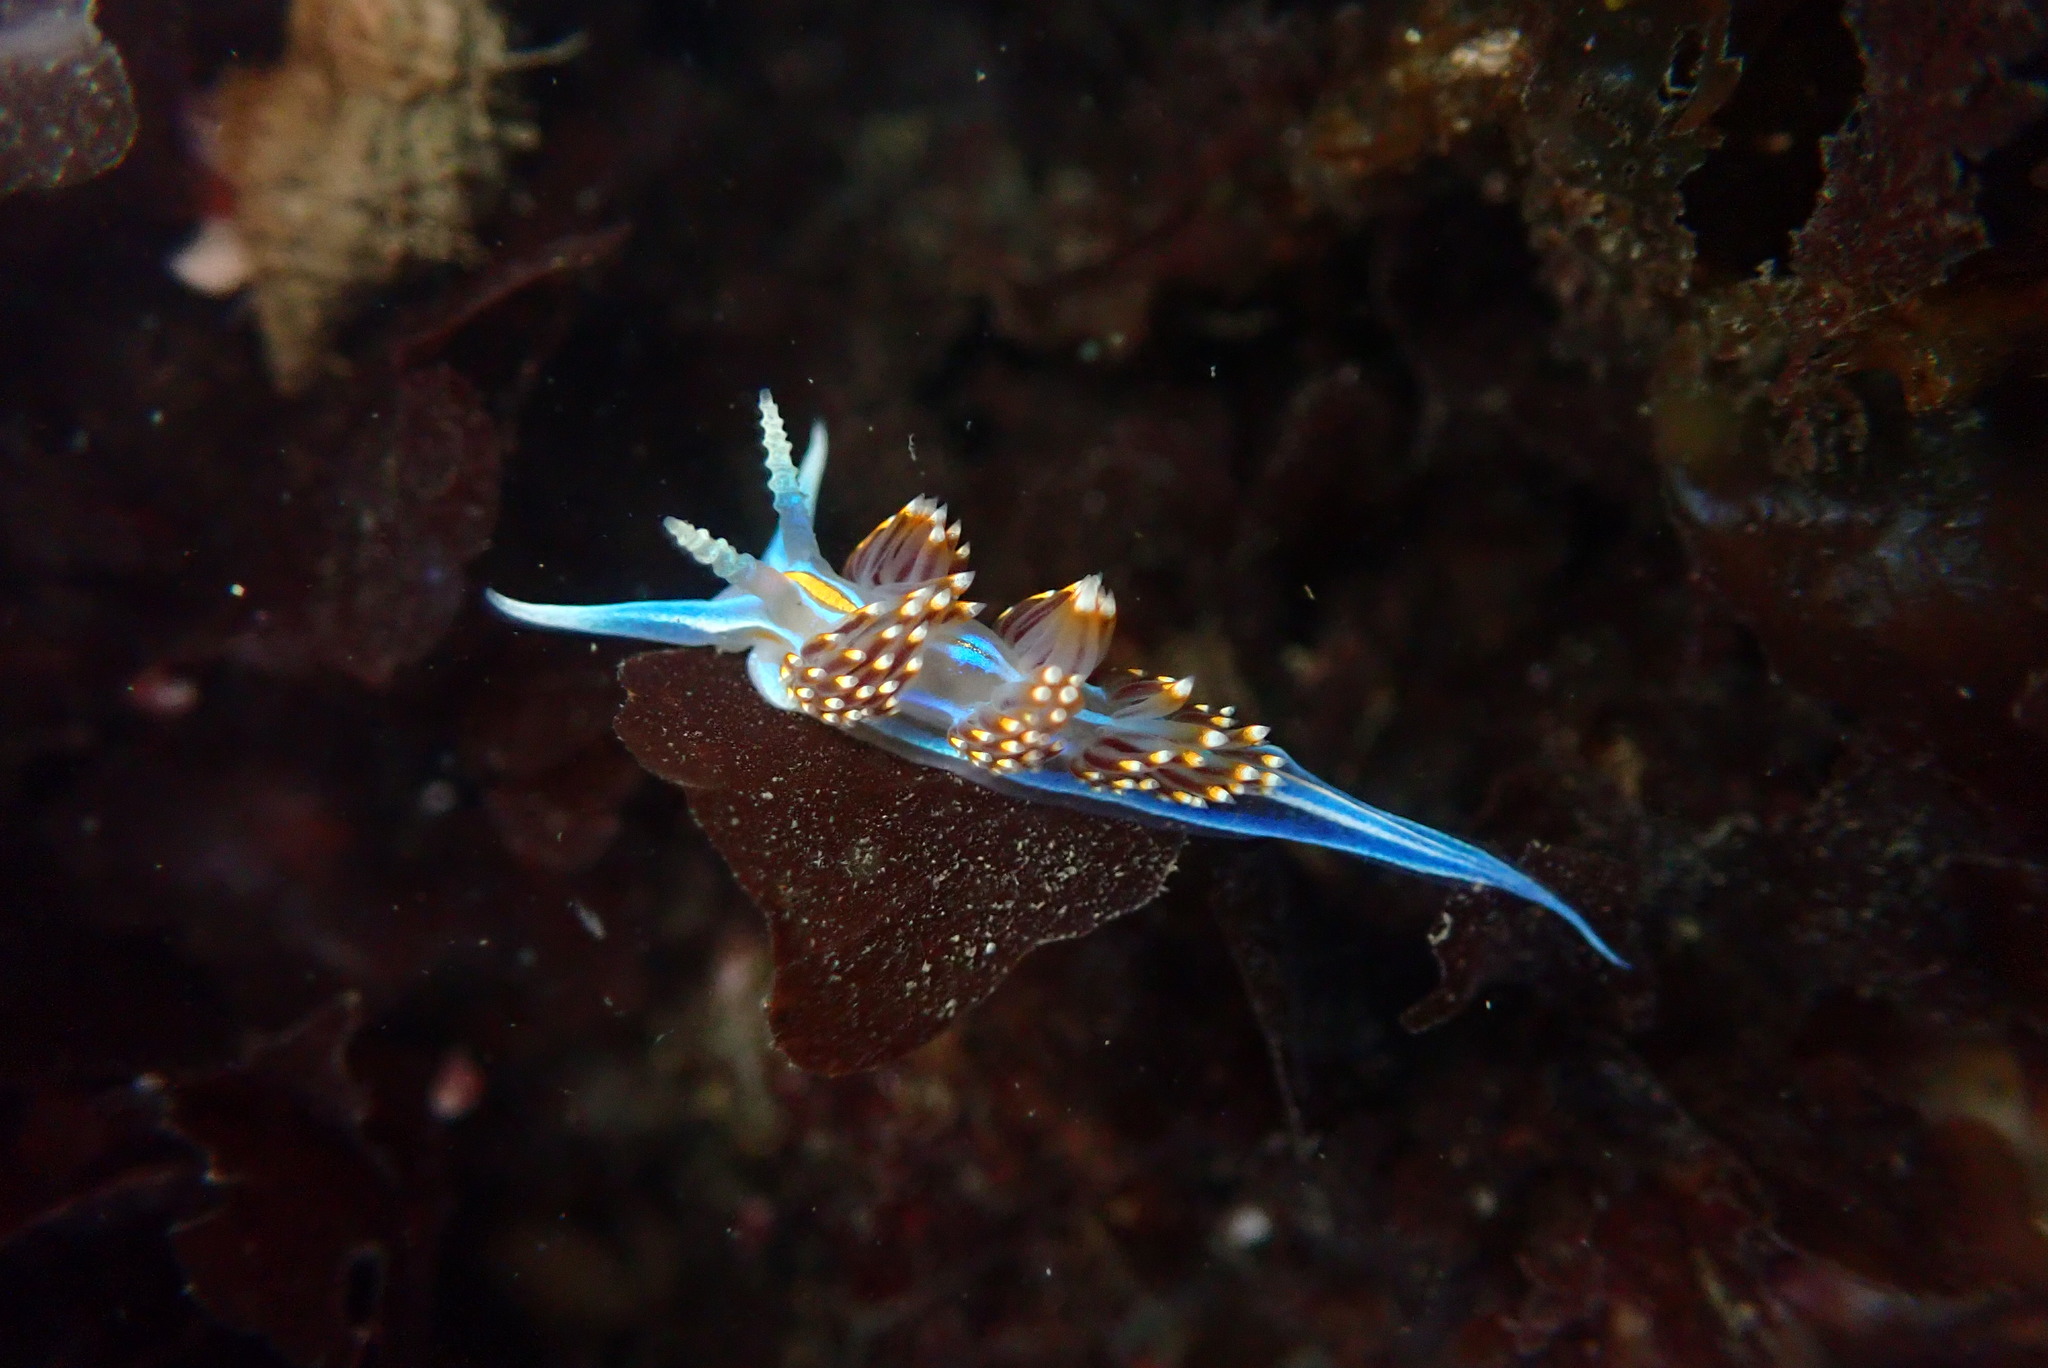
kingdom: Animalia
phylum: Mollusca
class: Gastropoda
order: Nudibranchia
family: Myrrhinidae
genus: Hermissenda
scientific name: Hermissenda opalescens
